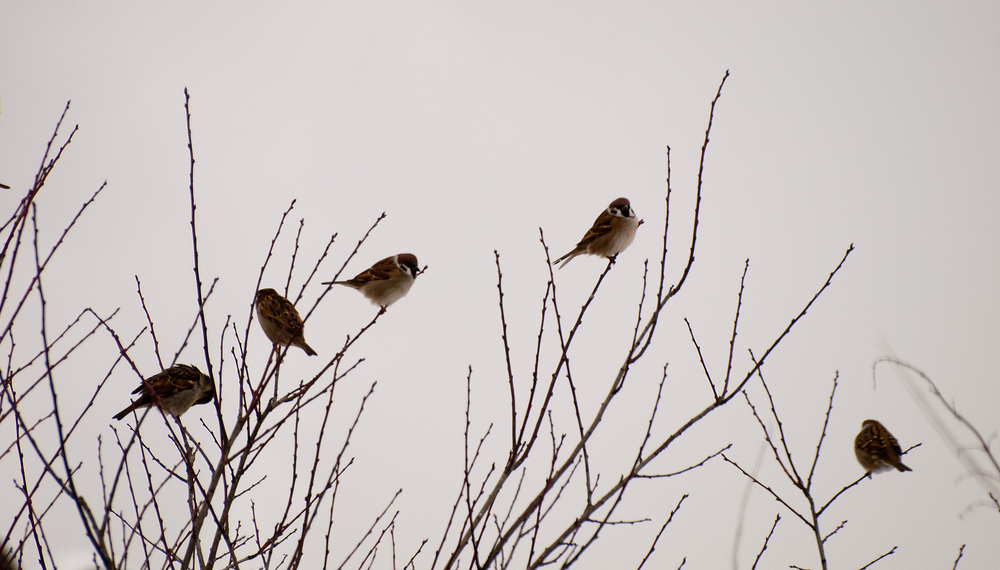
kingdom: Animalia
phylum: Chordata
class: Aves
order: Passeriformes
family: Passeridae
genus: Passer
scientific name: Passer montanus
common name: Eurasian tree sparrow
